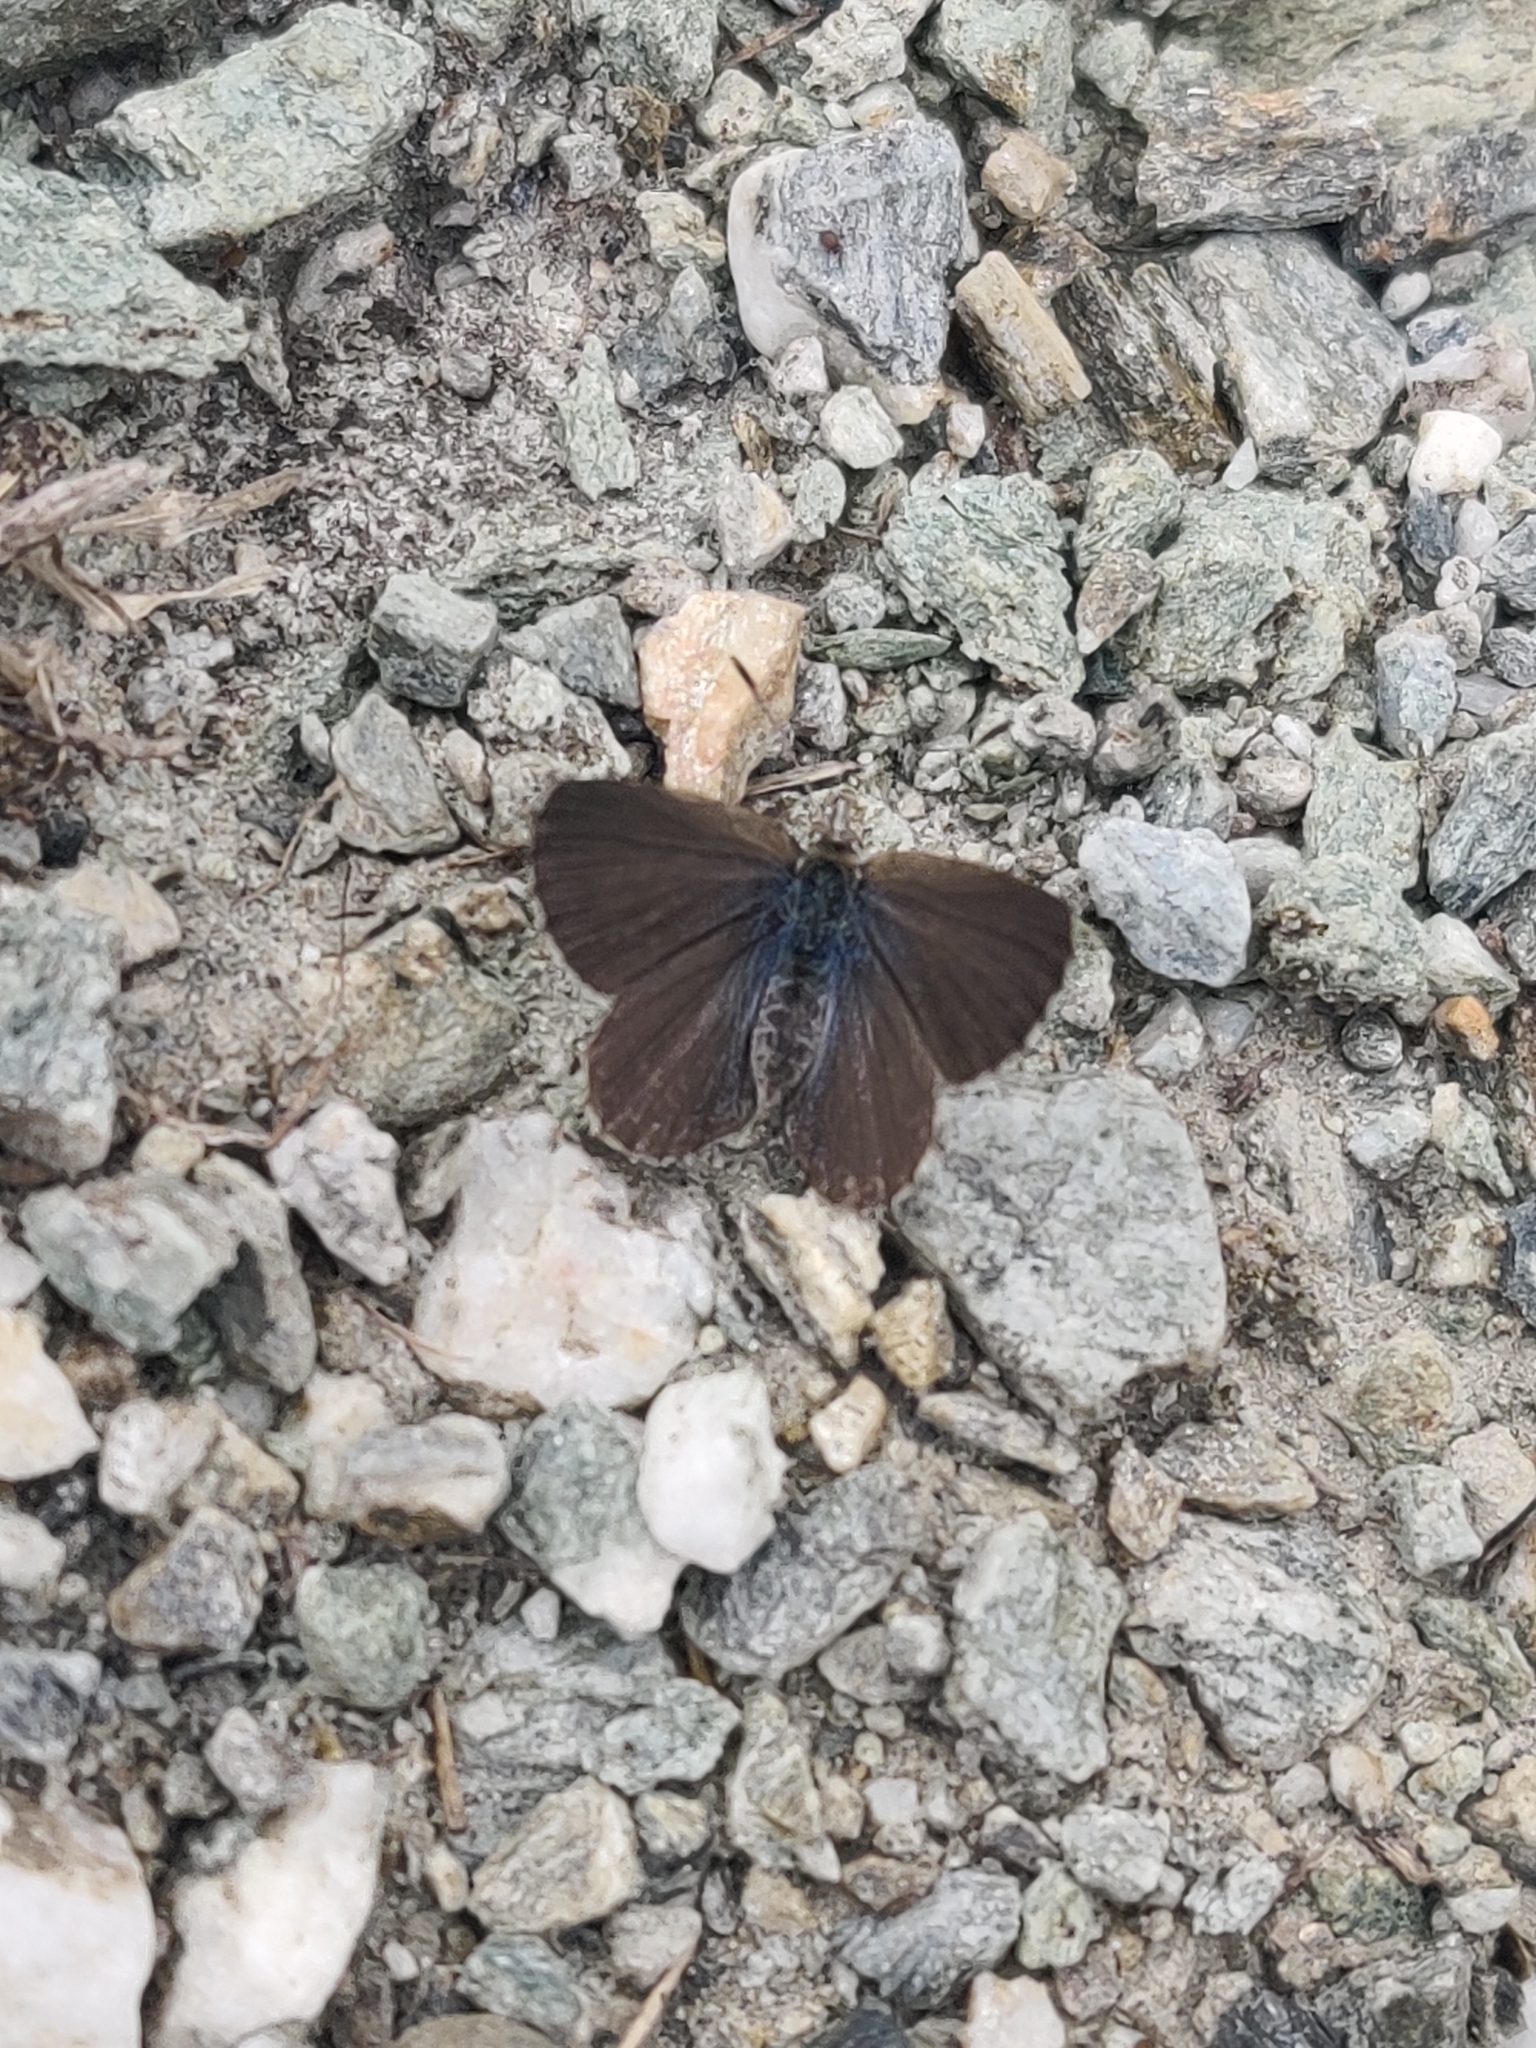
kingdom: Animalia
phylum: Arthropoda
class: Insecta
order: Lepidoptera
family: Lycaenidae
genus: Zizina
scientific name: Zizina oxleyi
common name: Southern blue
